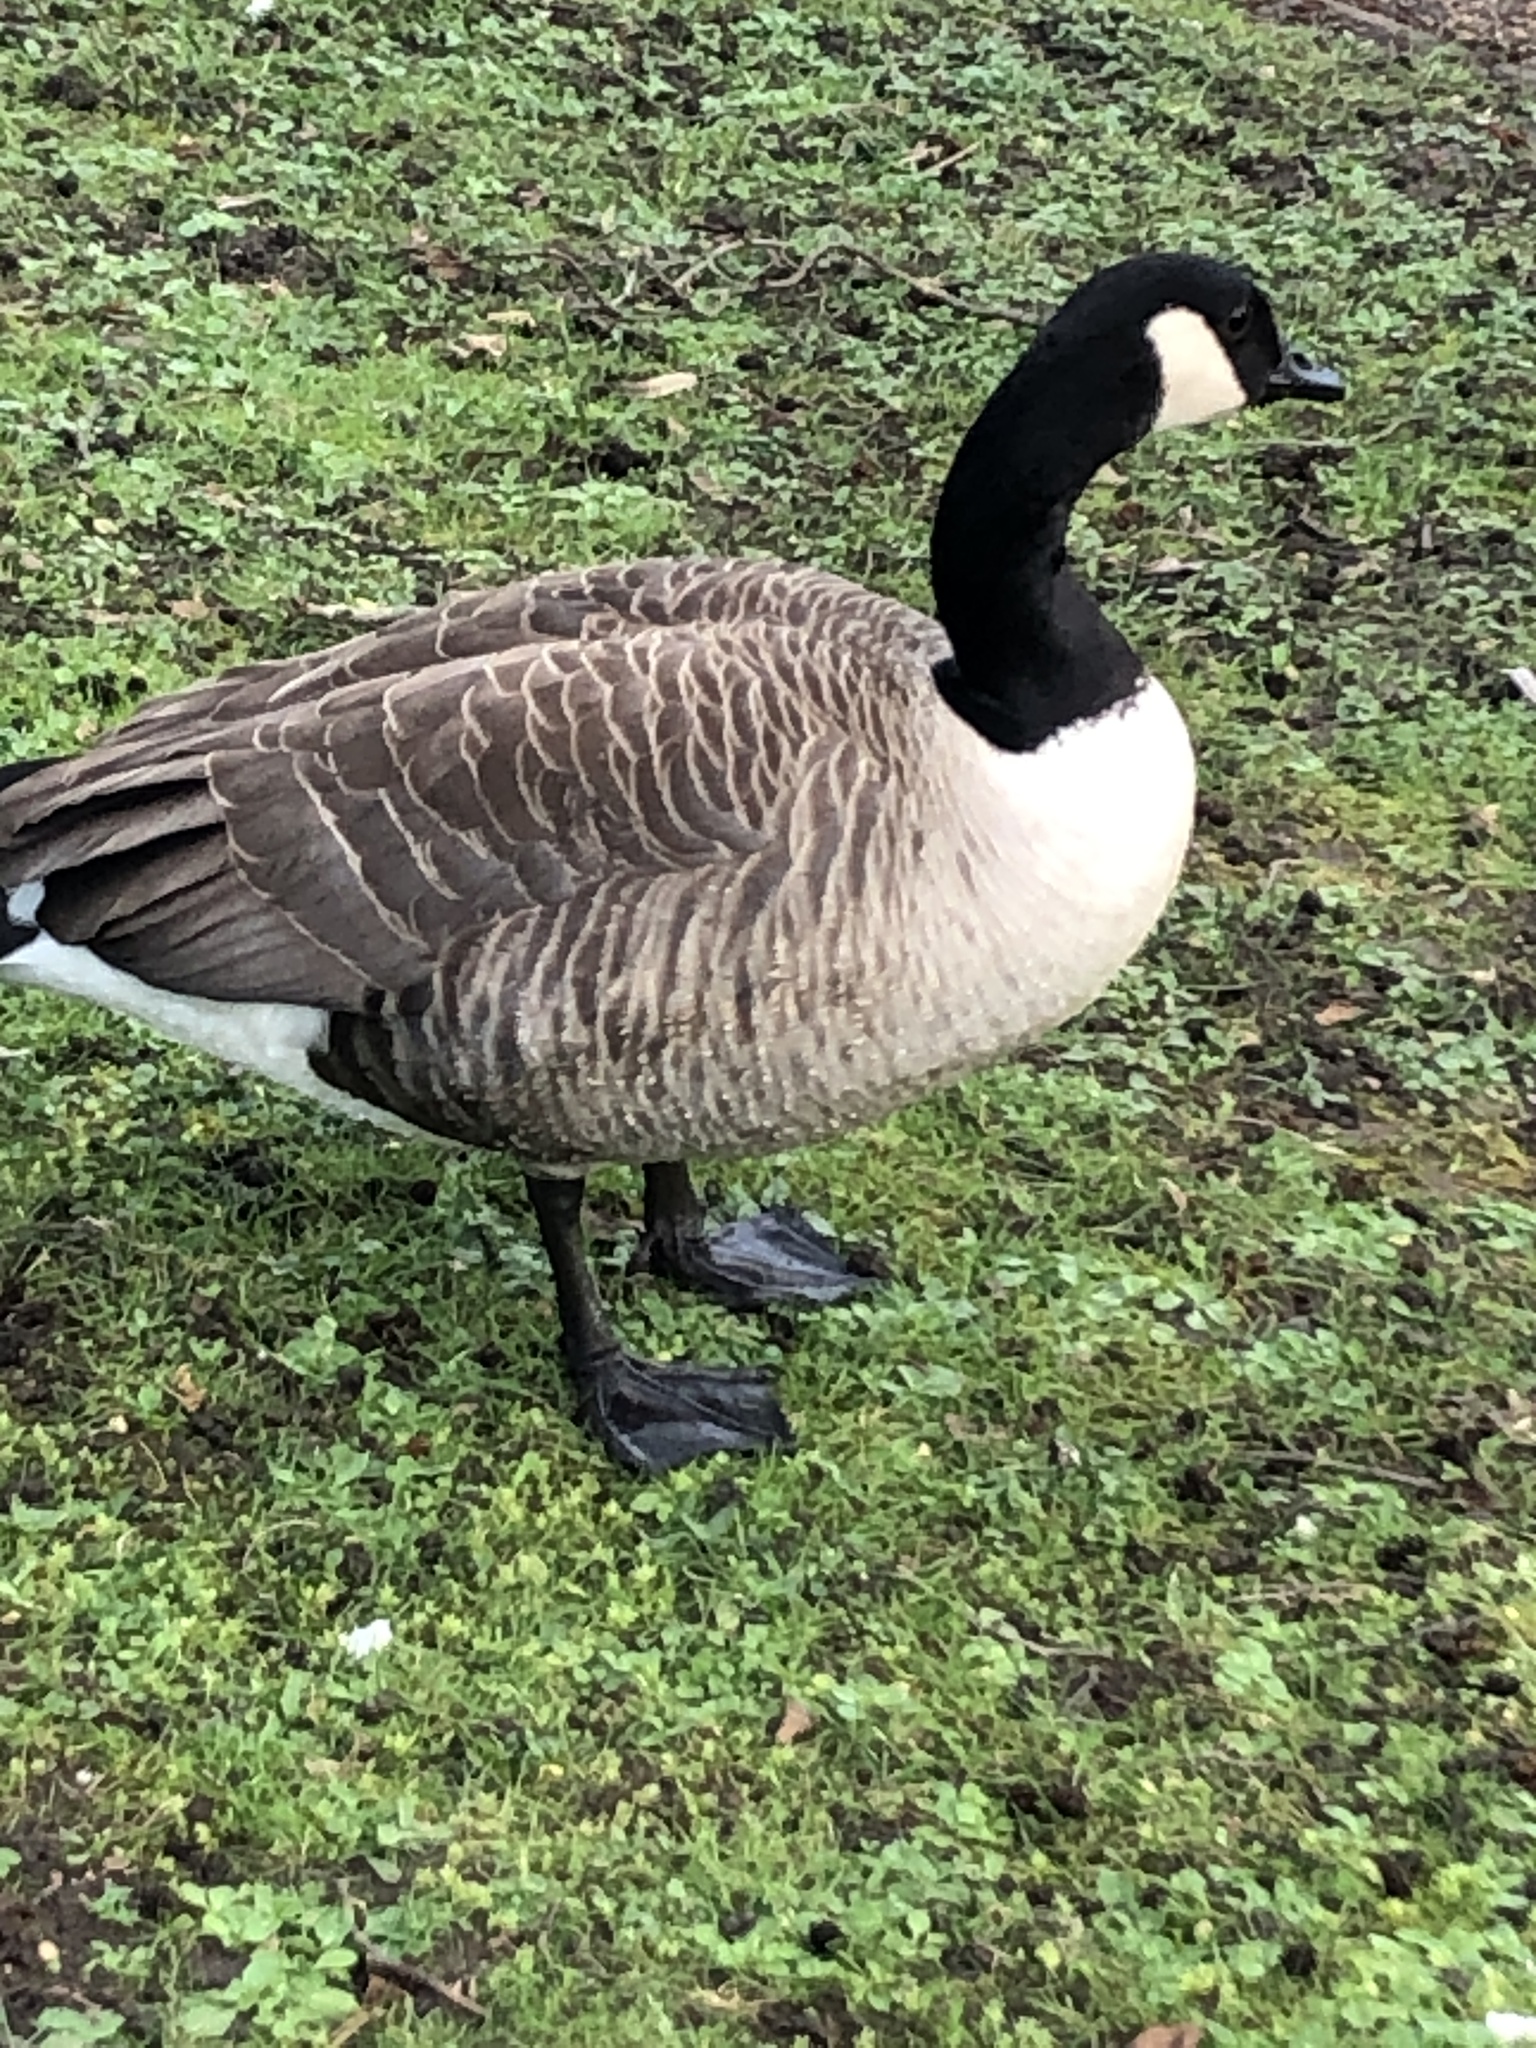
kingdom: Animalia
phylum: Chordata
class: Aves
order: Anseriformes
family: Anatidae
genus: Branta
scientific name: Branta canadensis
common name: Canada goose
